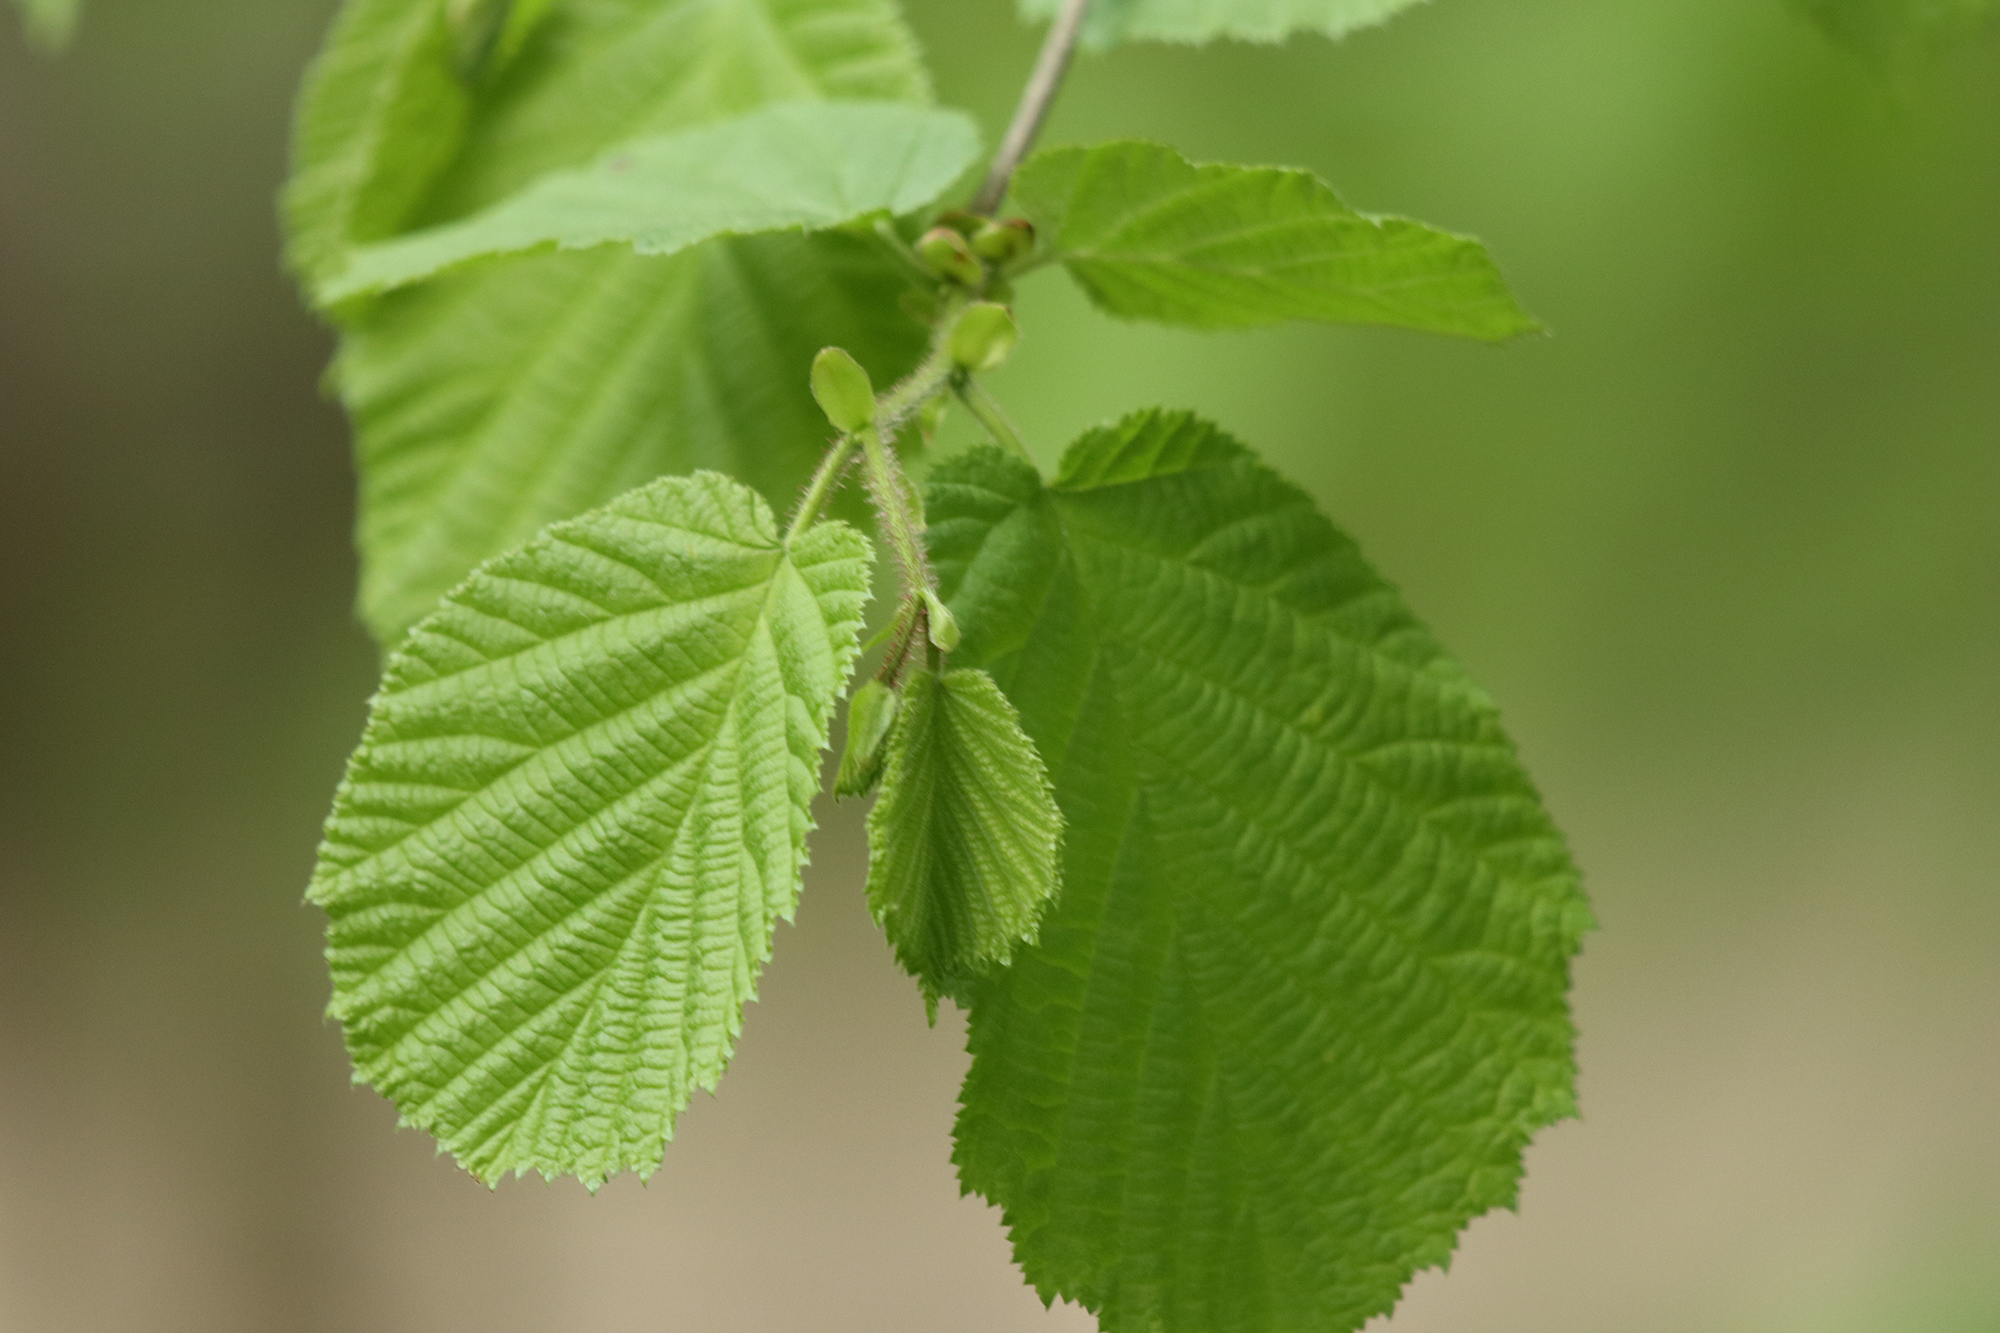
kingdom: Plantae
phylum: Tracheophyta
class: Magnoliopsida
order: Fagales
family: Betulaceae
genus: Corylus
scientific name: Corylus avellana
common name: European hazel
